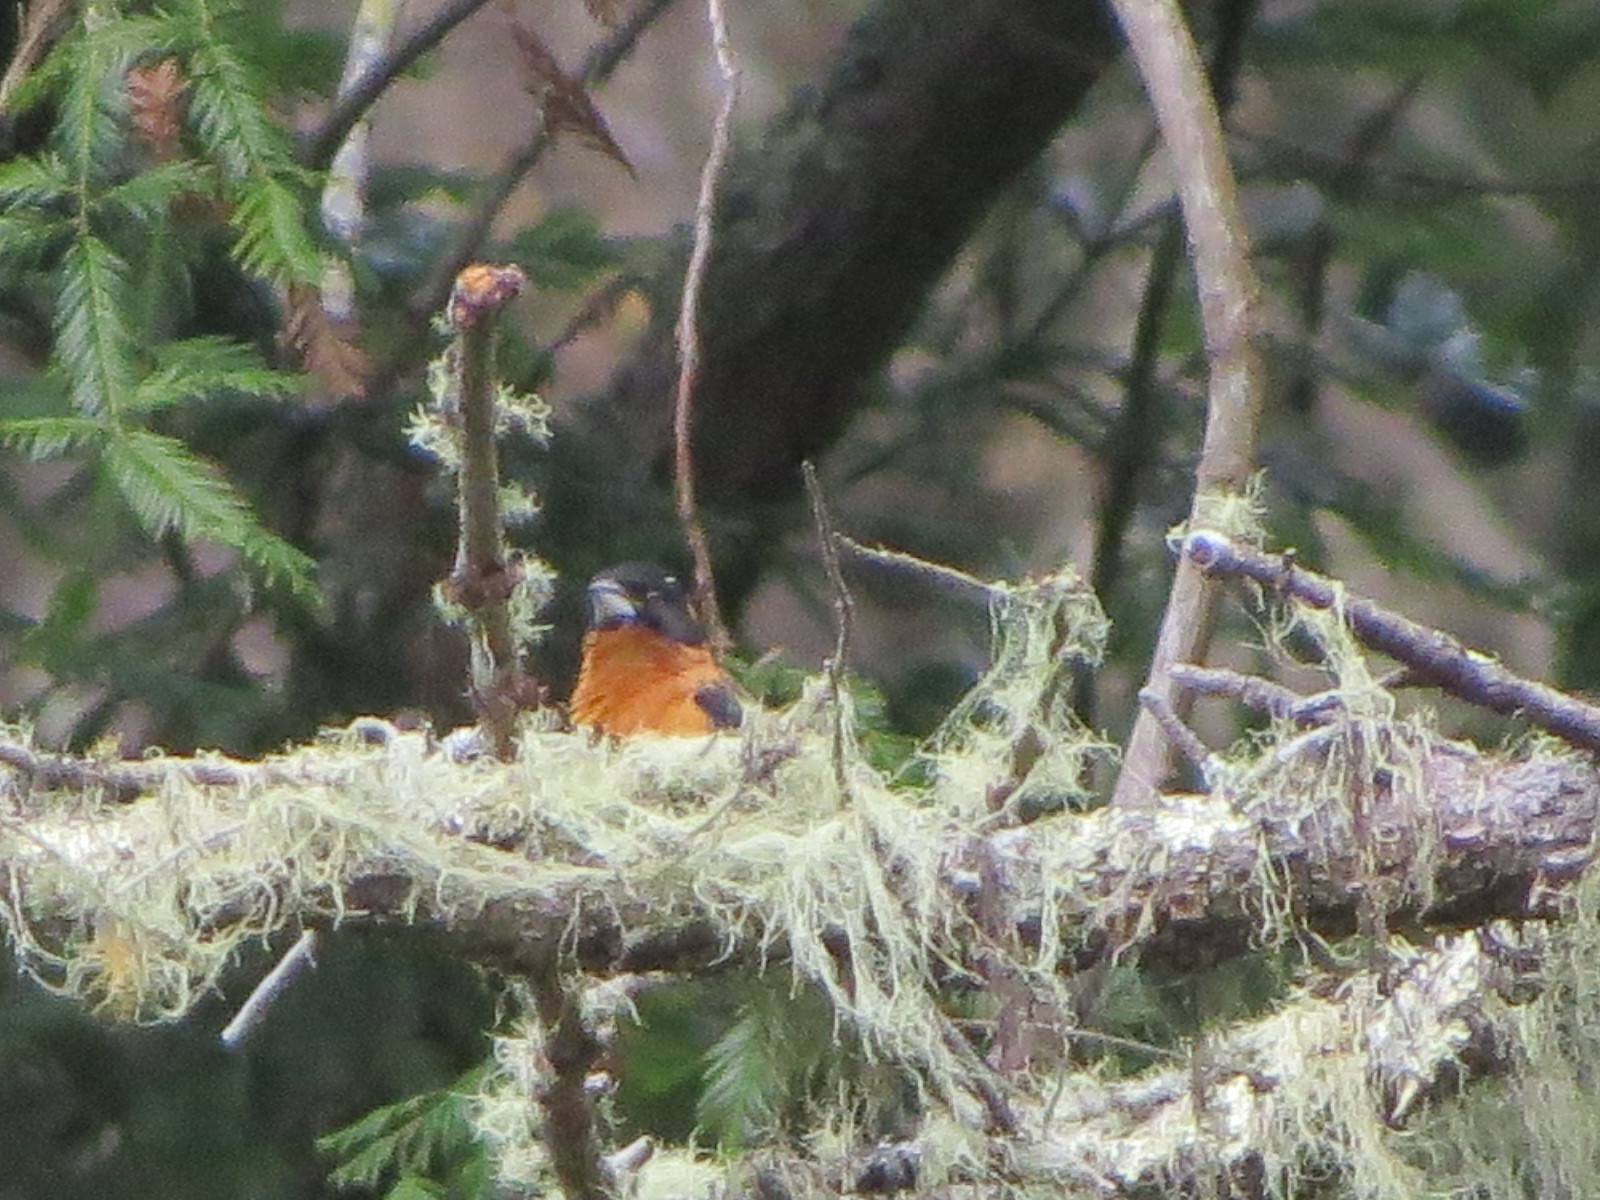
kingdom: Animalia
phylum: Chordata
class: Aves
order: Passeriformes
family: Cardinalidae
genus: Pheucticus
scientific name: Pheucticus melanocephalus
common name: Black-headed grosbeak
